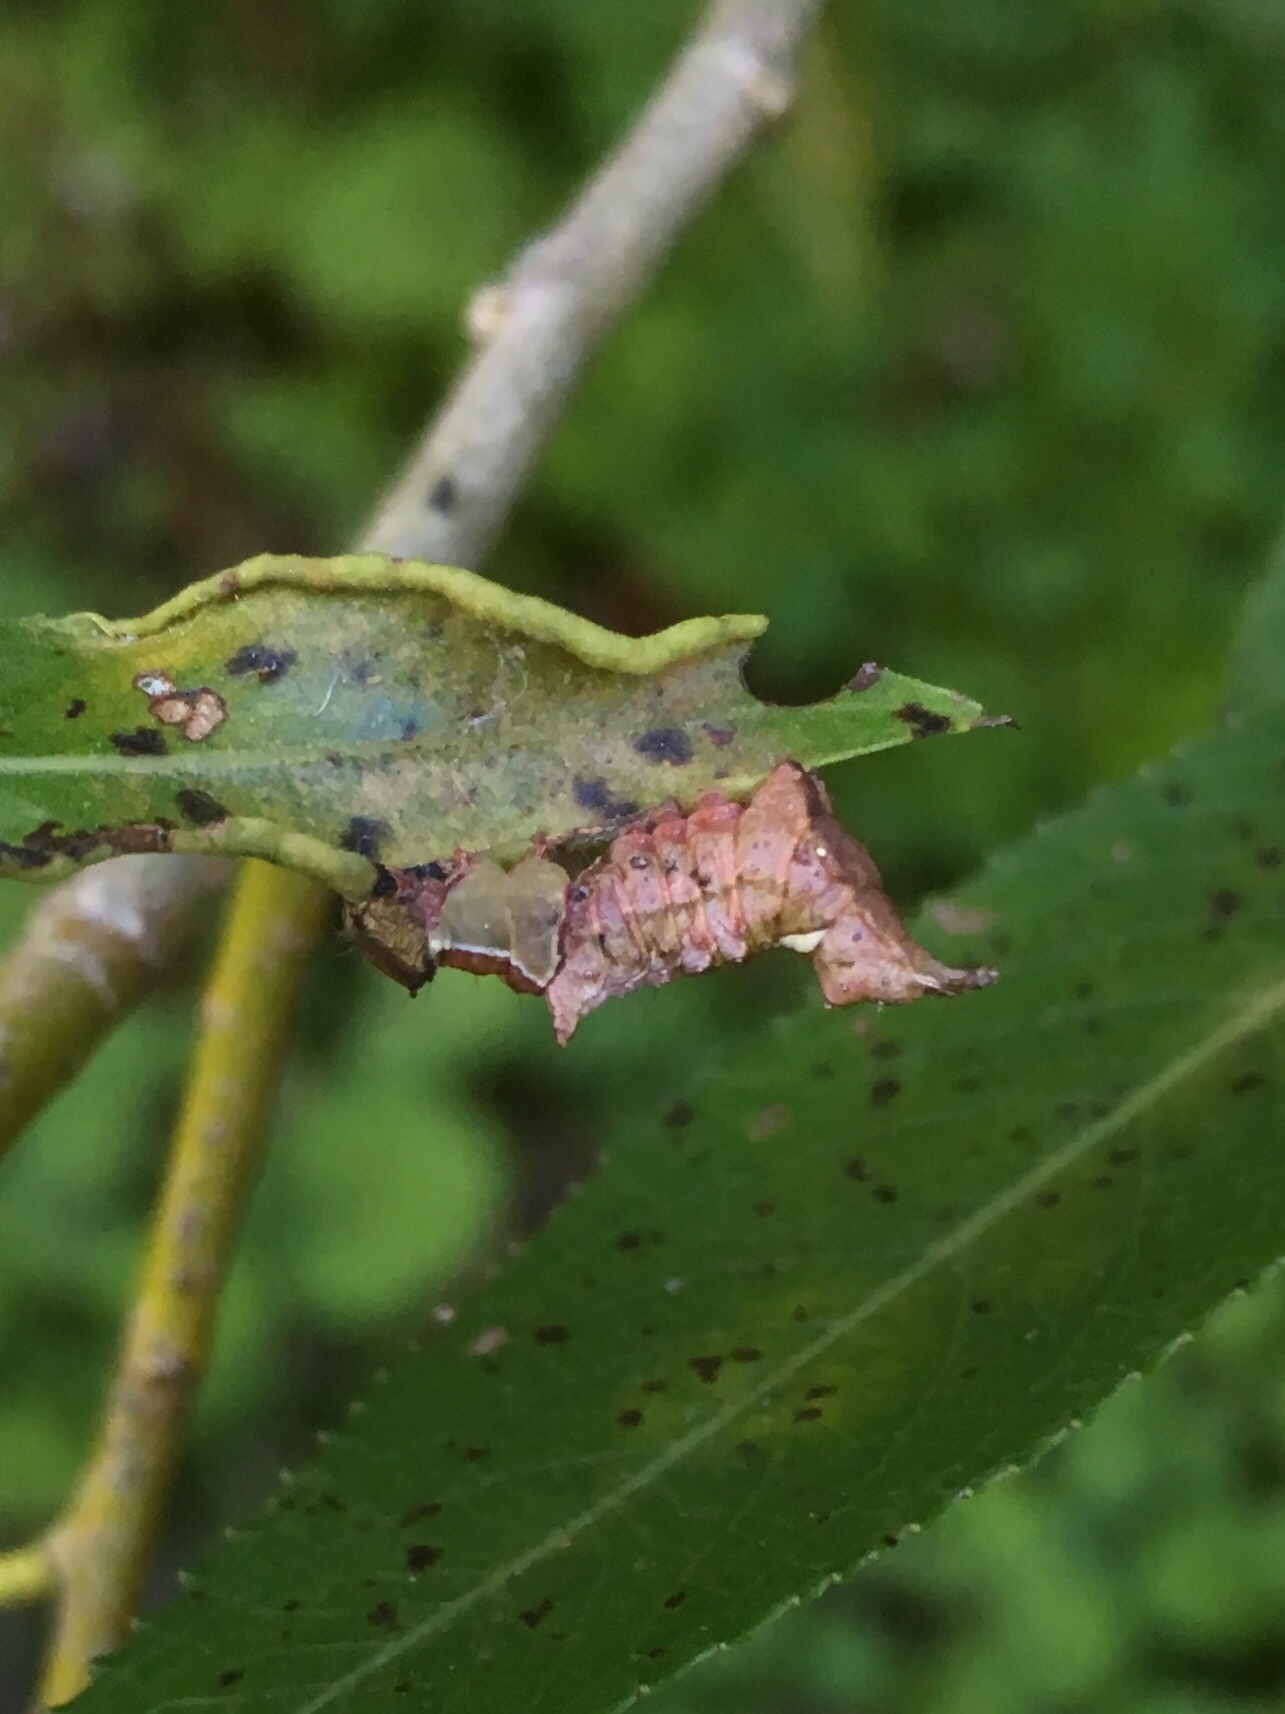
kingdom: Animalia
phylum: Arthropoda
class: Insecta
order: Lepidoptera
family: Notodontidae
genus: Schizura
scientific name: Schizura
